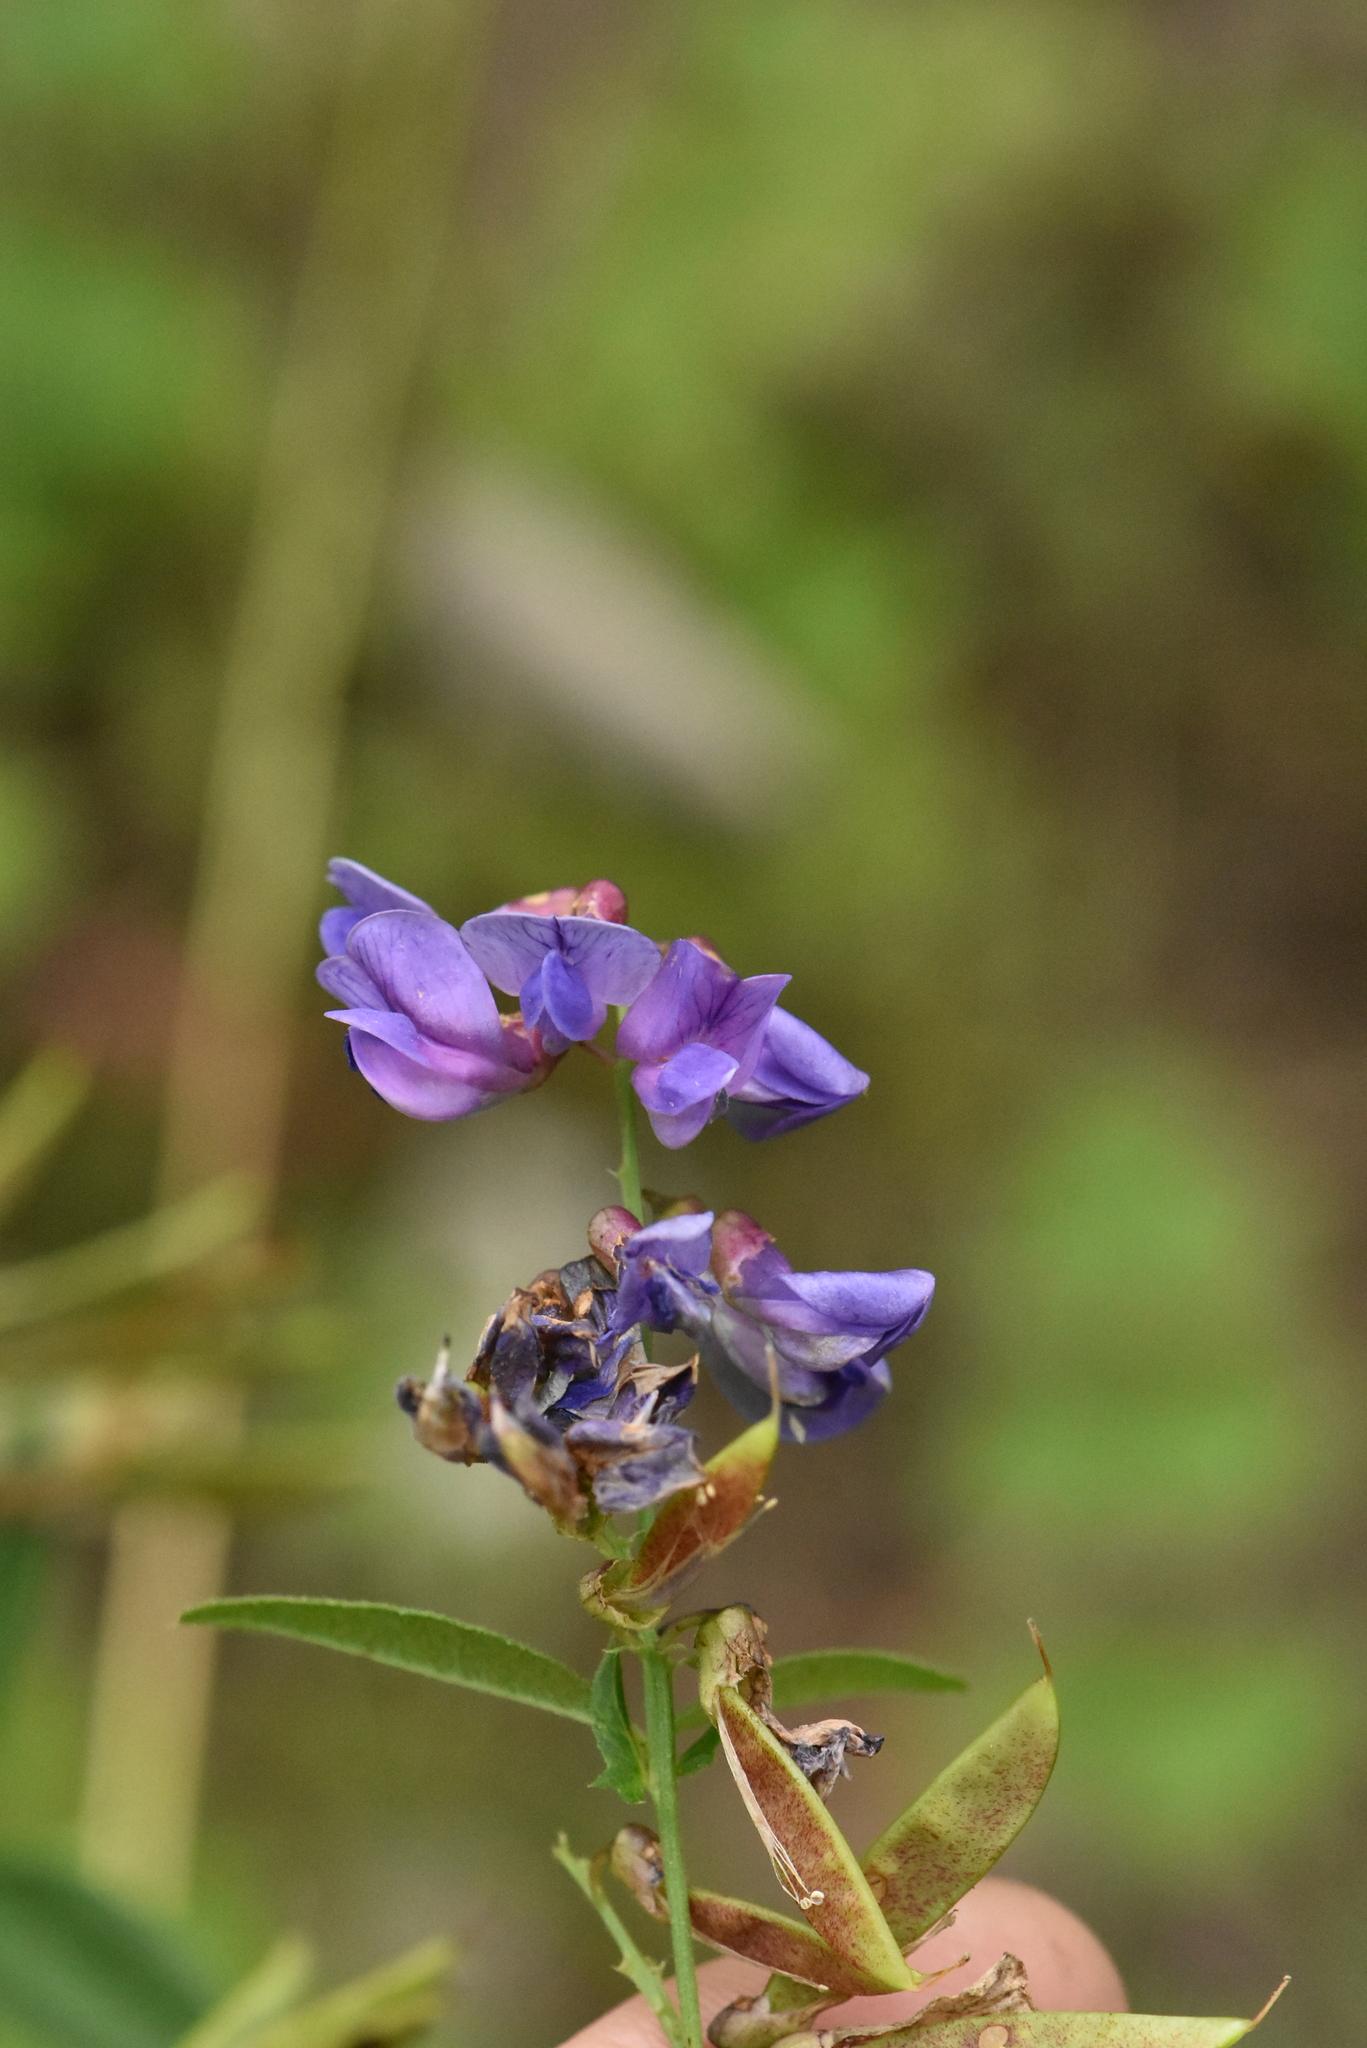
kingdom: Plantae
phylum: Tracheophyta
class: Magnoliopsida
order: Fabales
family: Fabaceae
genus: Vicia
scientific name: Vicia unijuga
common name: Two-leaf vetch
